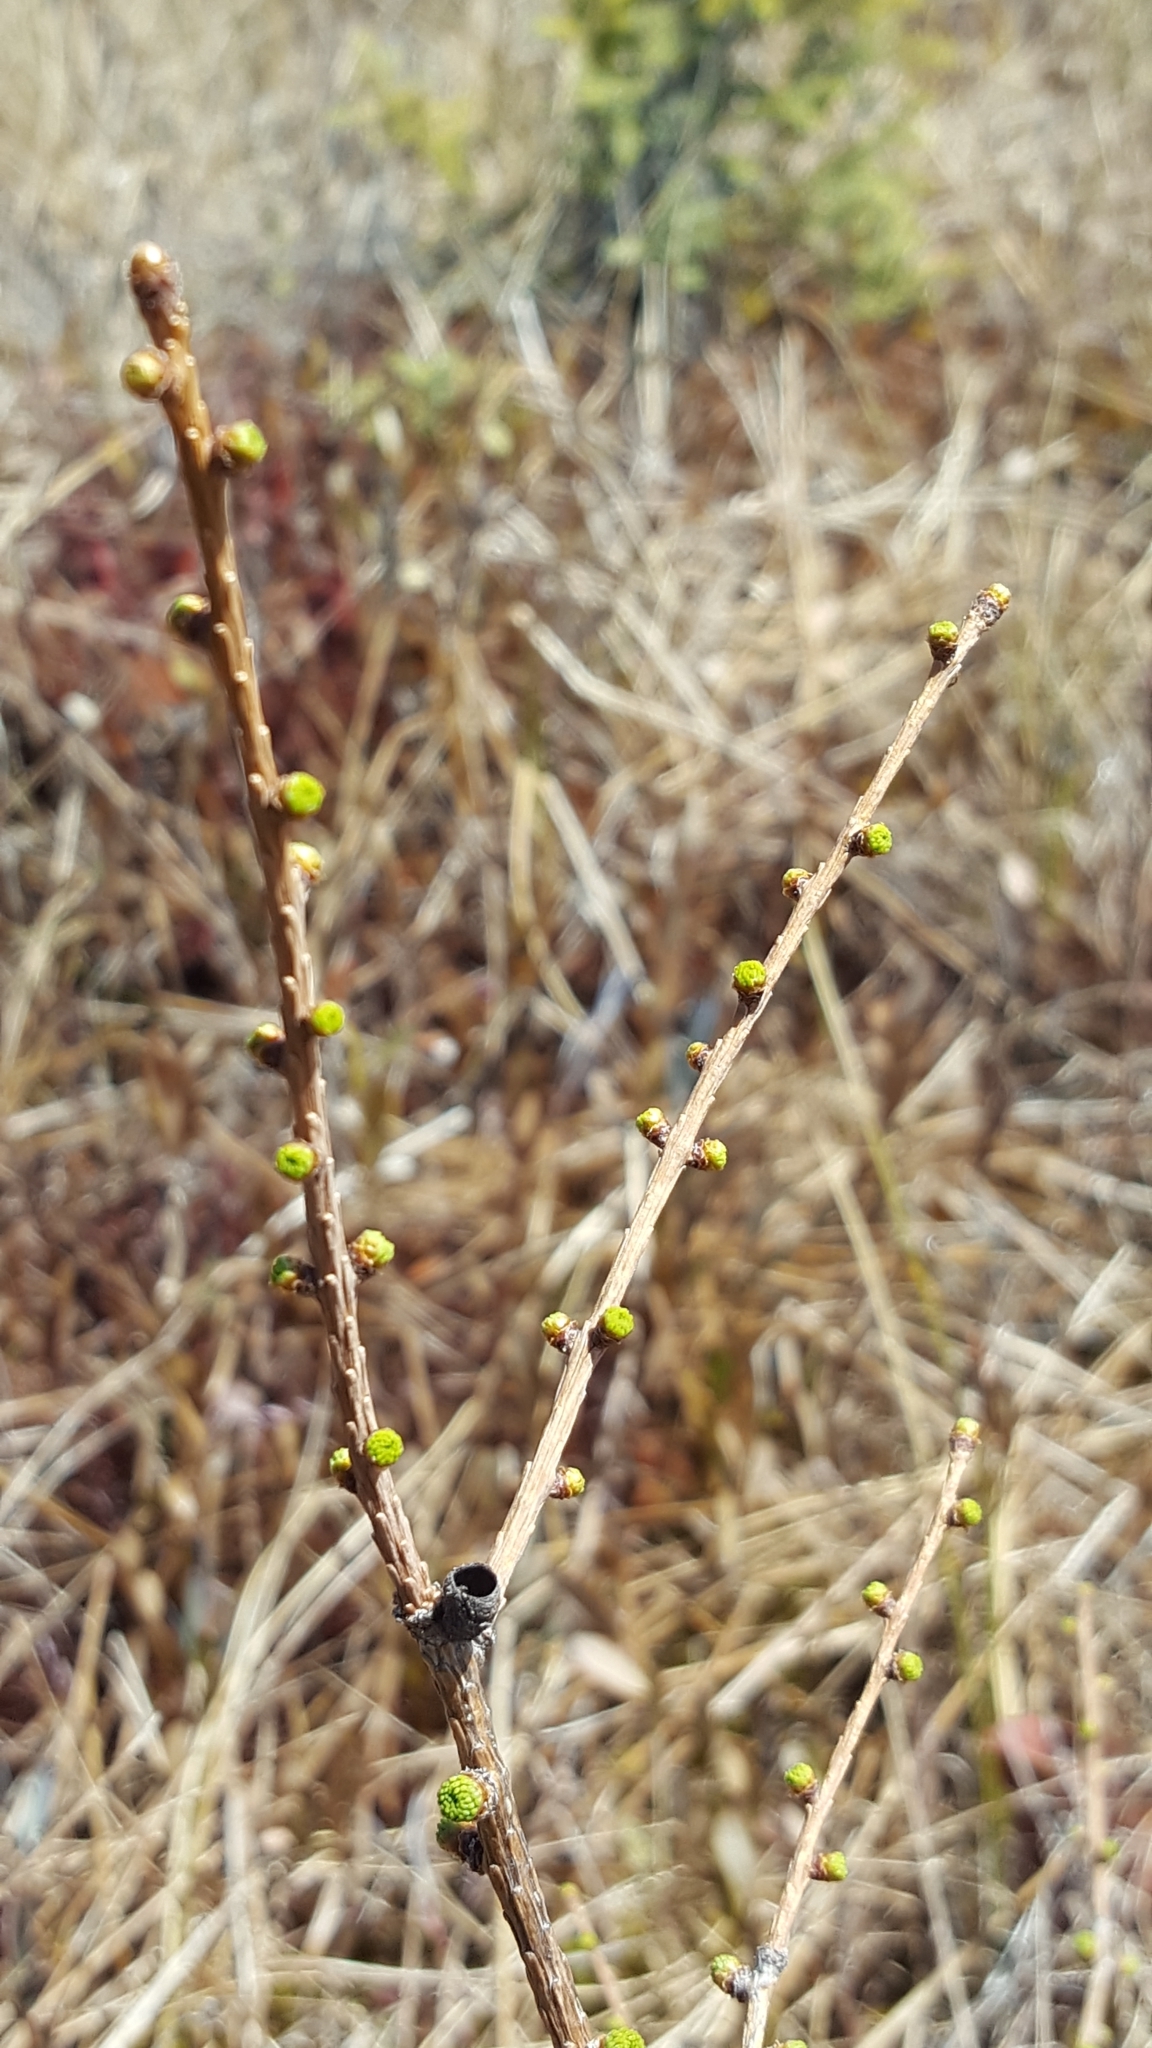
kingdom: Plantae
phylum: Tracheophyta
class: Pinopsida
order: Pinales
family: Pinaceae
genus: Larix
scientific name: Larix laricina
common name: American larch
